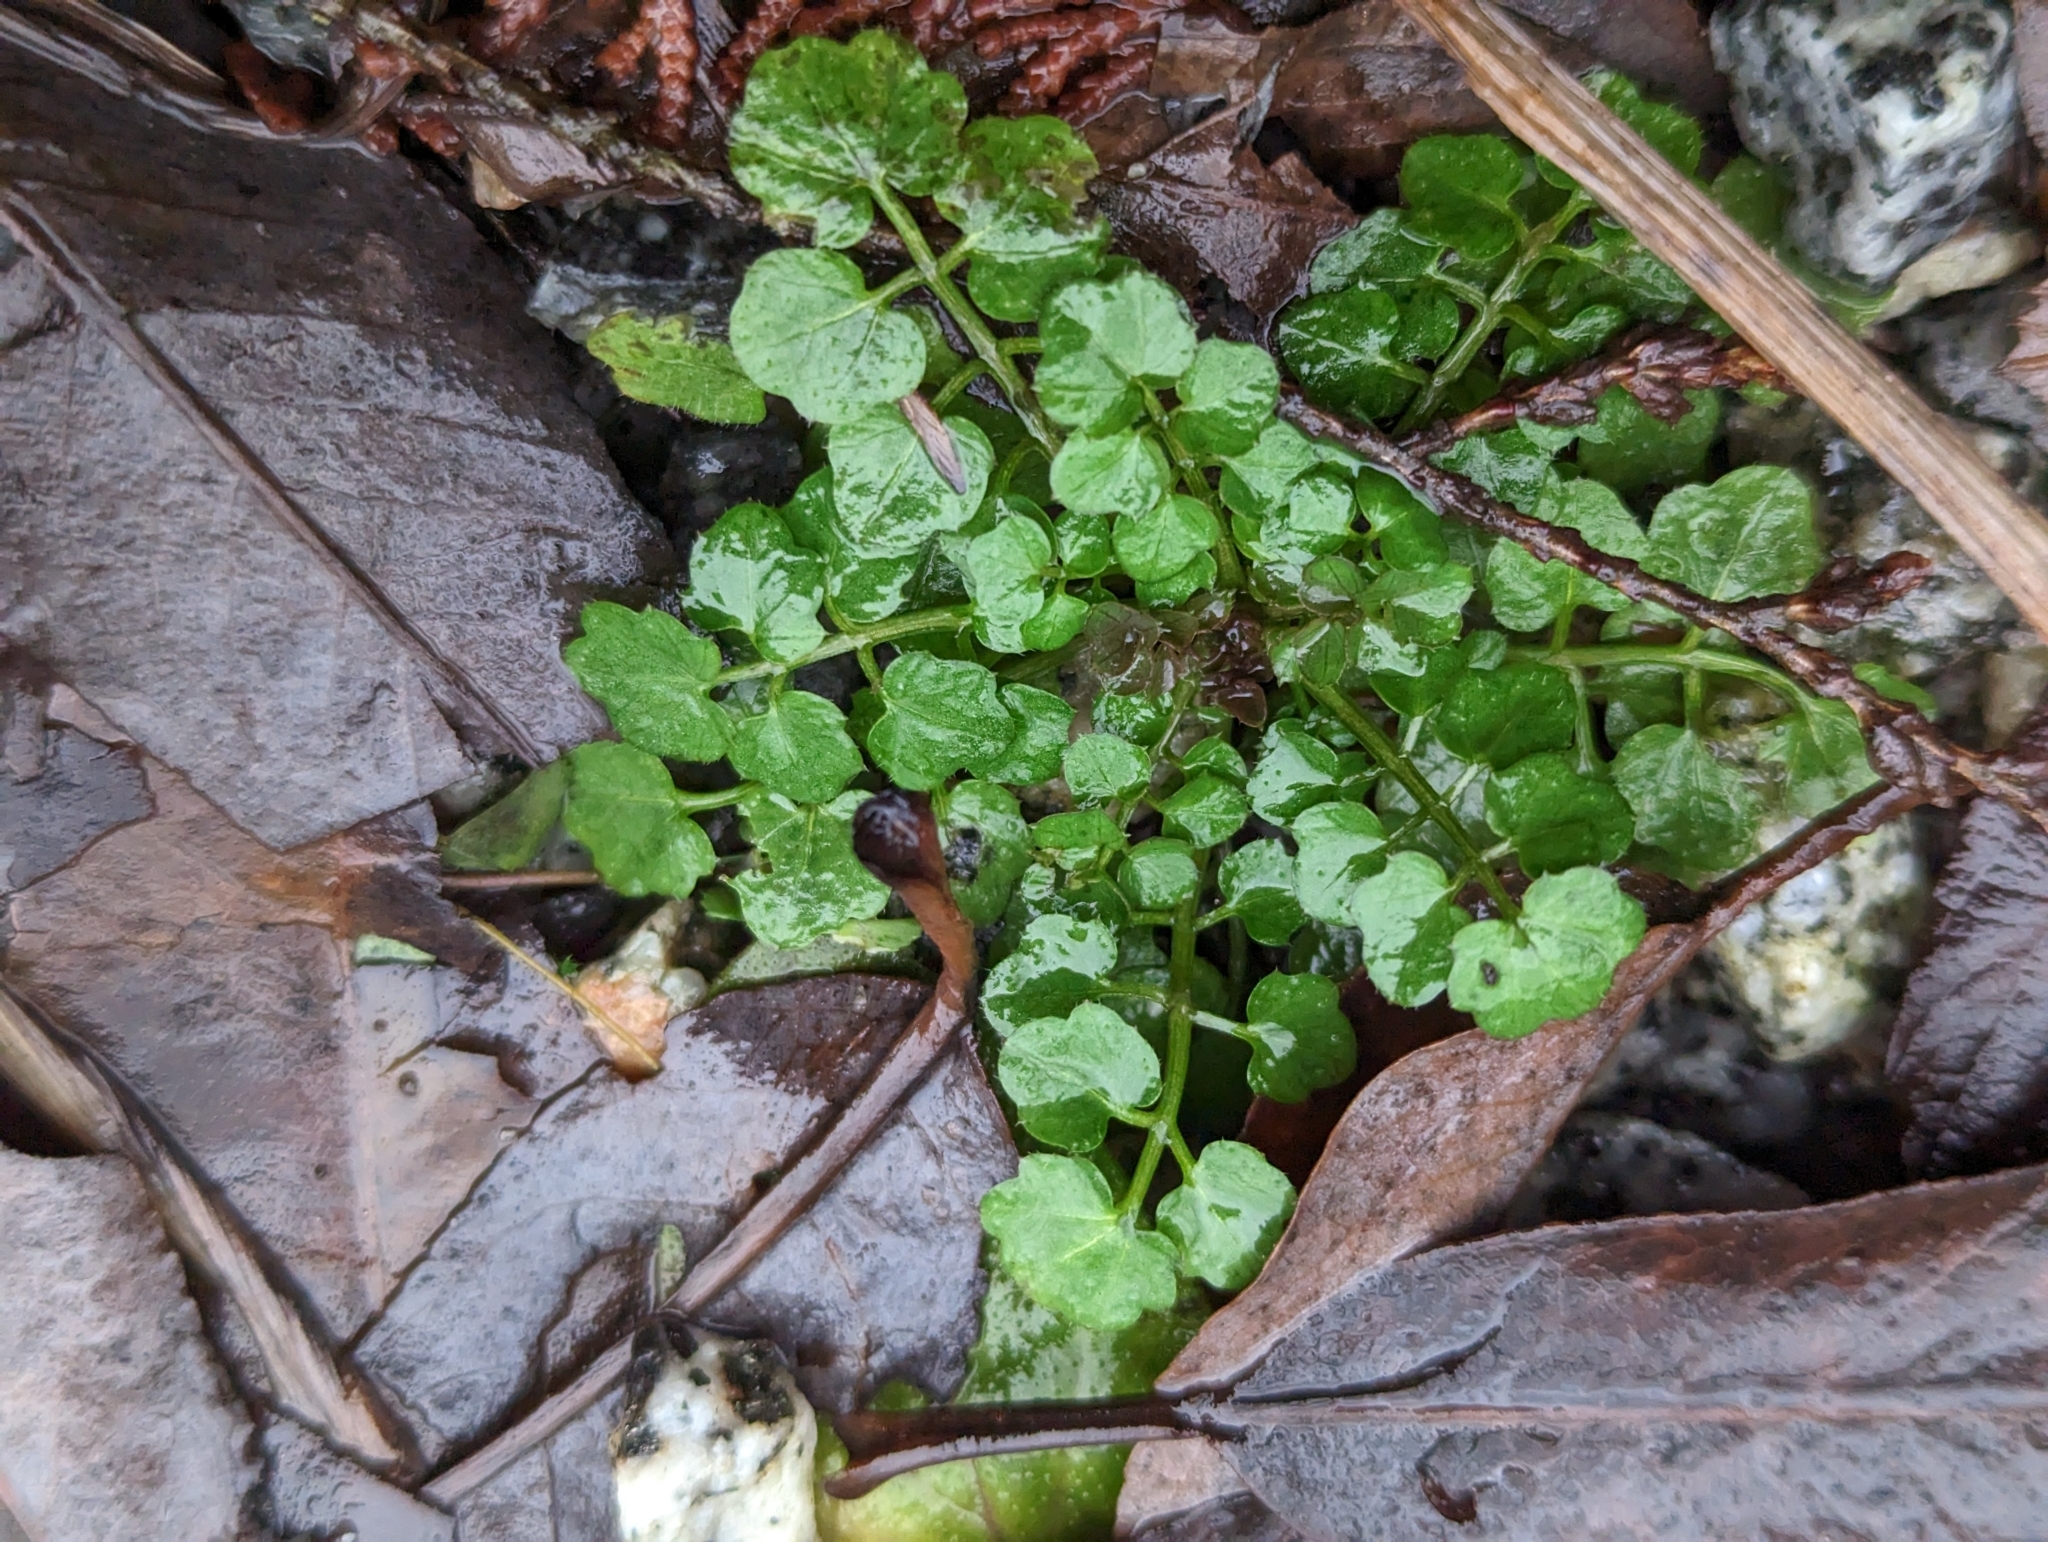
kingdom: Plantae
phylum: Tracheophyta
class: Magnoliopsida
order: Brassicales
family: Brassicaceae
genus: Cardamine
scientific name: Cardamine flexuosa
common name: Woodland bittercress
